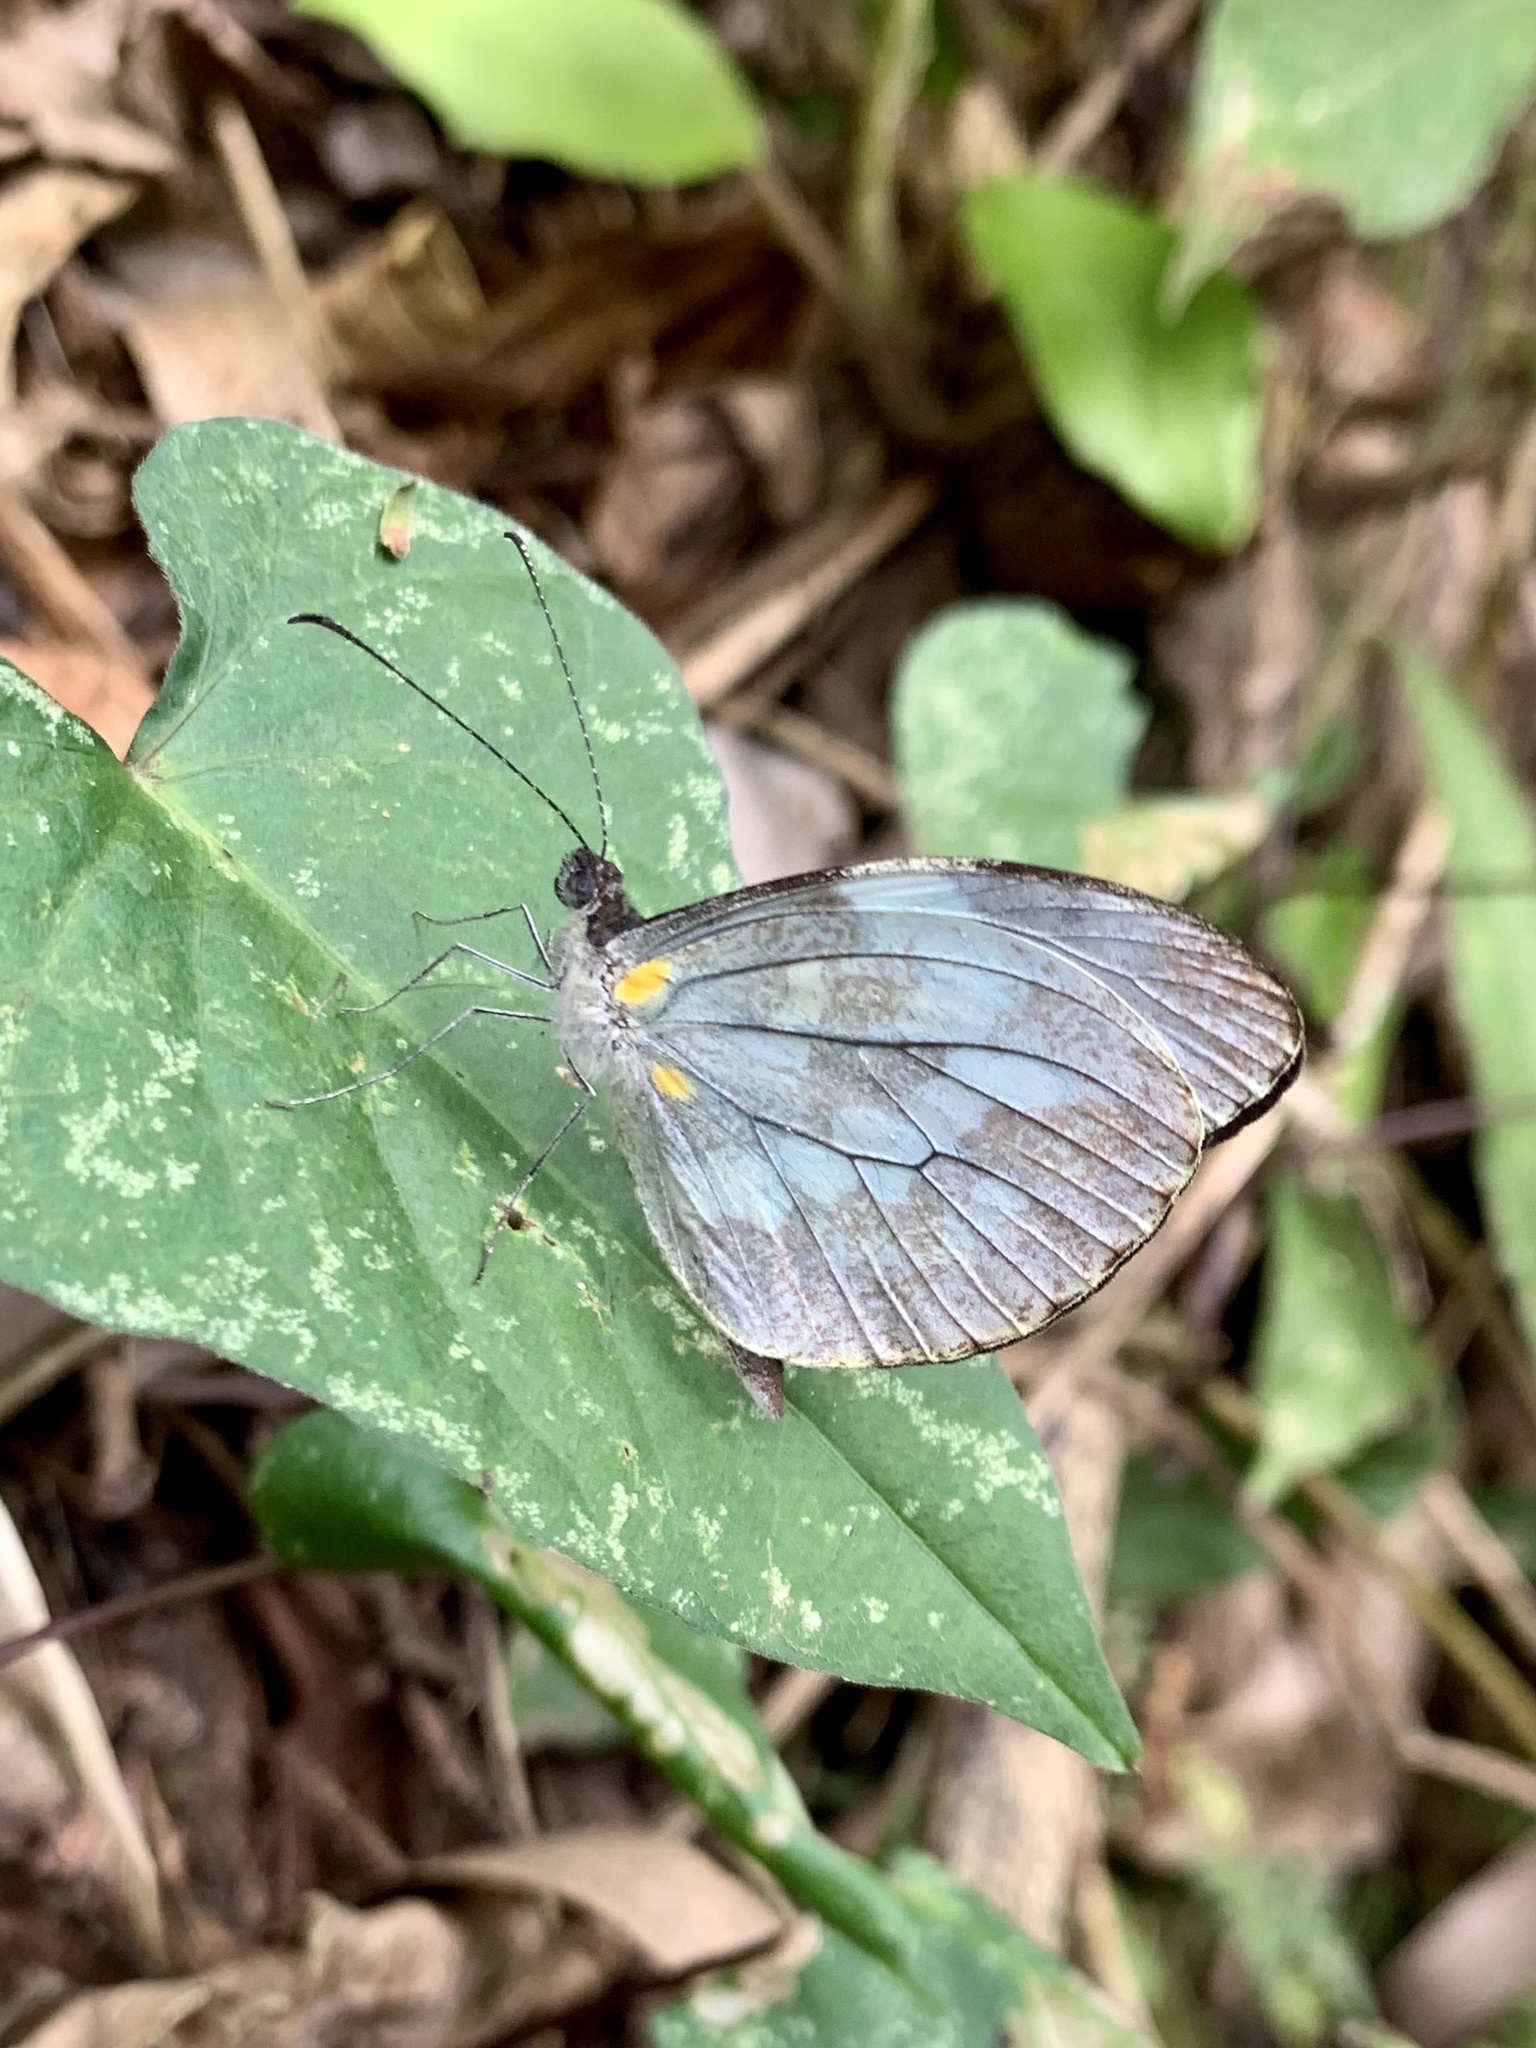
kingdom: Animalia
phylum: Arthropoda
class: Insecta
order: Lepidoptera
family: Pieridae
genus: Dismorphia
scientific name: Dismorphia crisia
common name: Crisia mimic-white
